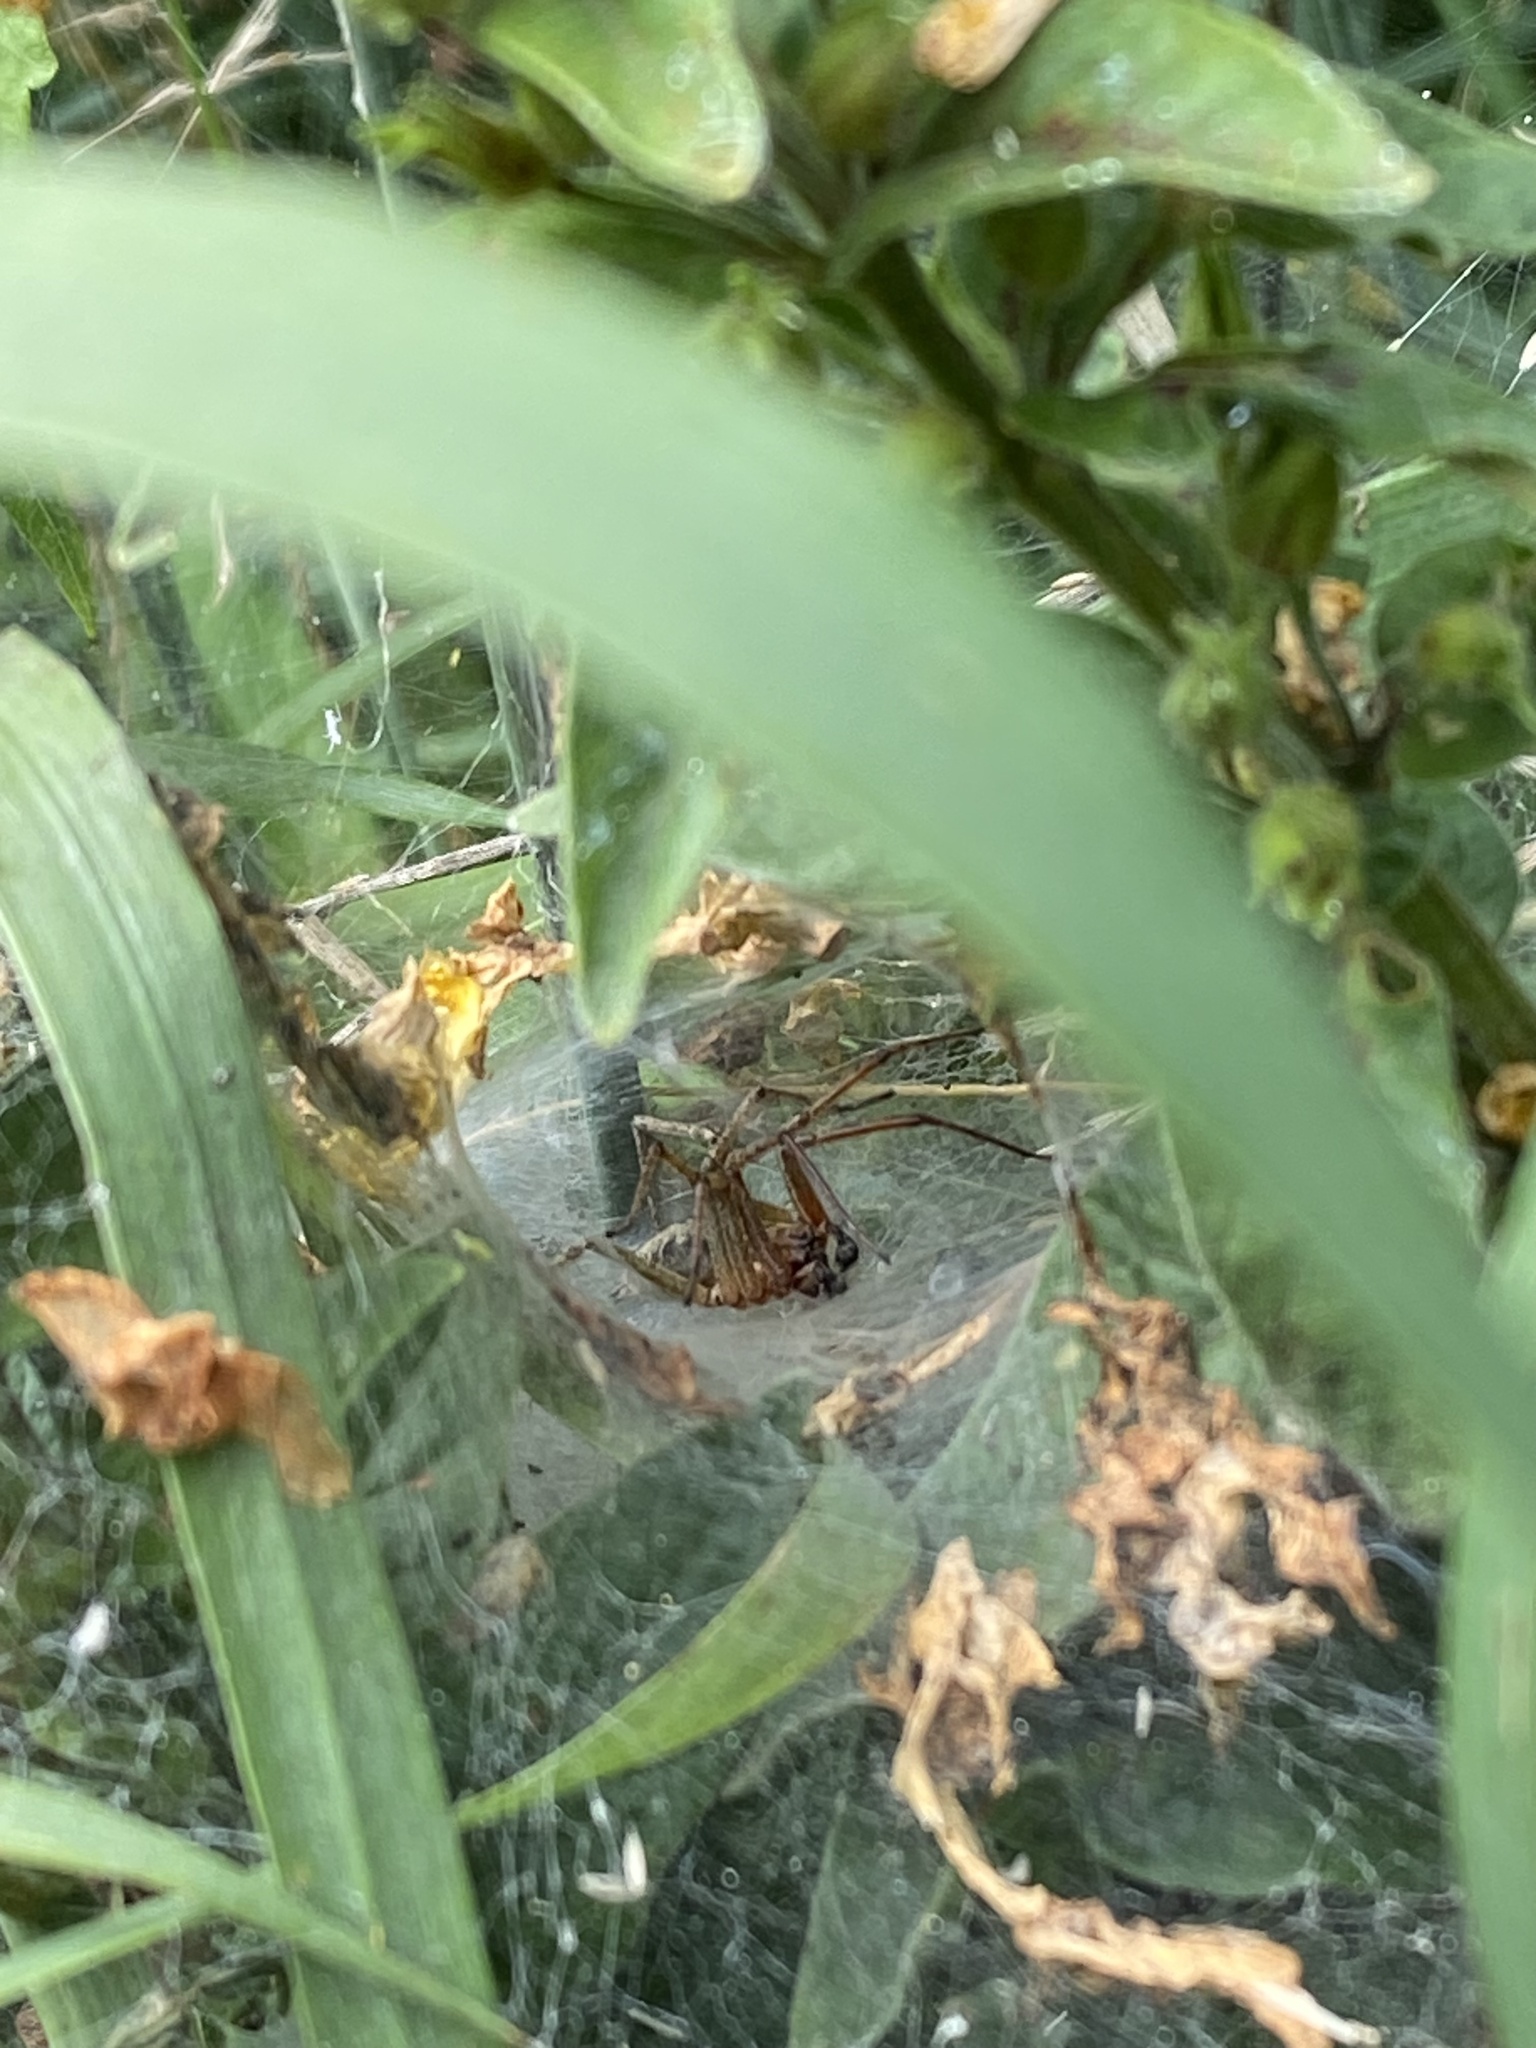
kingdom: Animalia
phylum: Arthropoda
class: Arachnida
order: Araneae
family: Agelenidae
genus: Agelena
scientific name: Agelena labyrinthica
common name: Labyrinth spider
